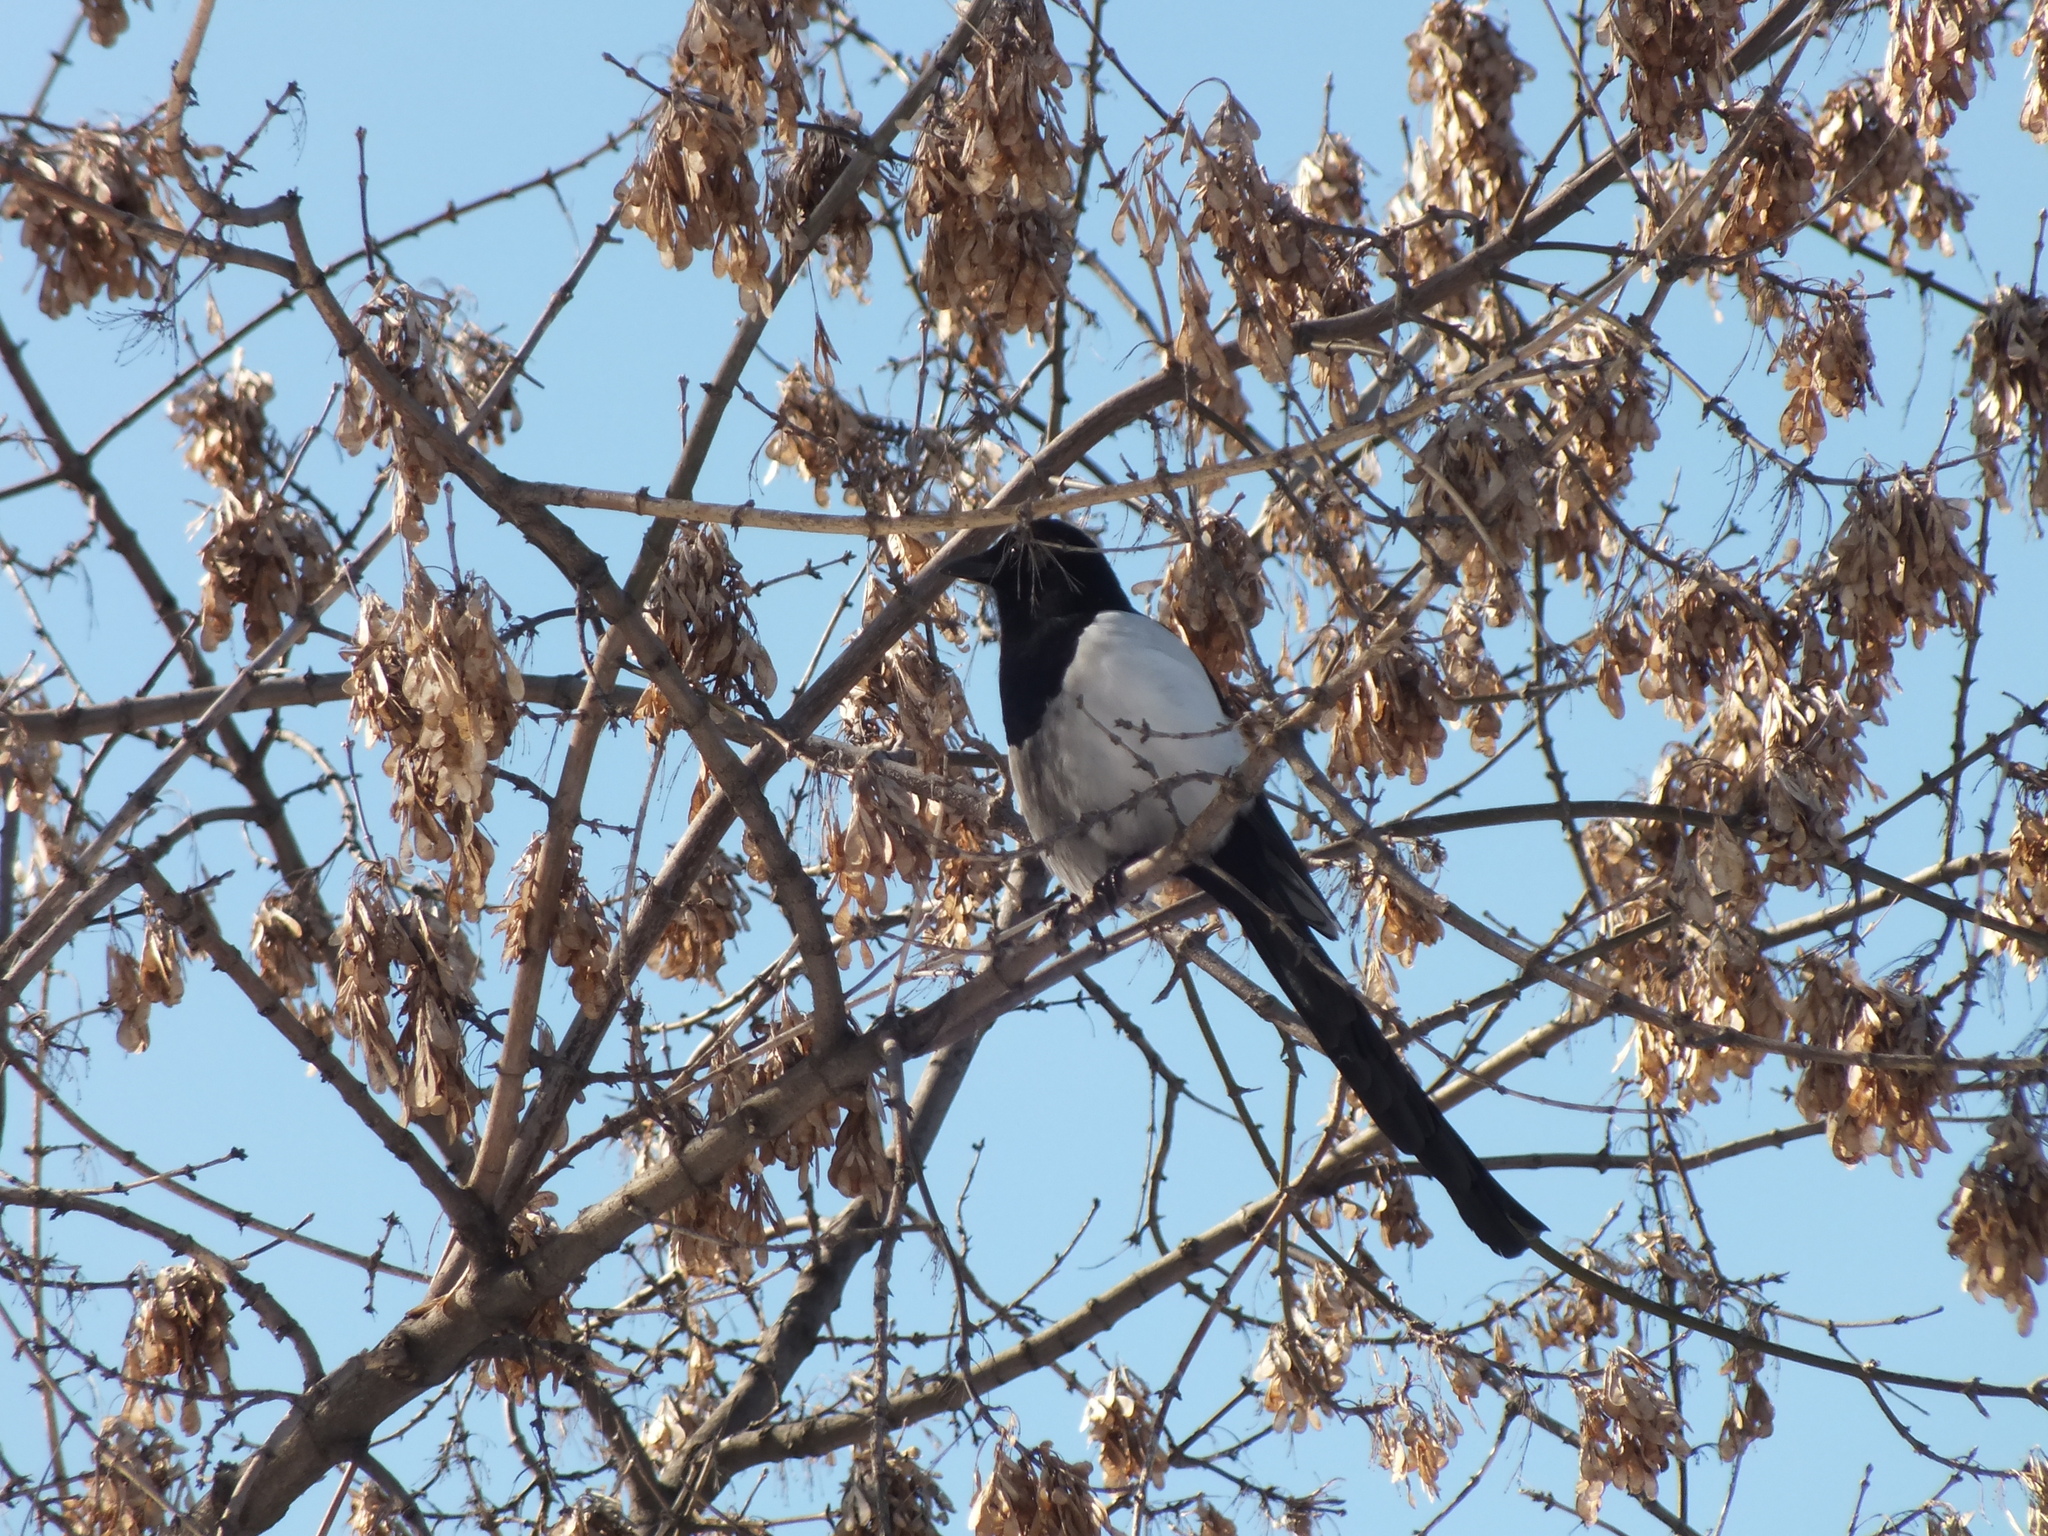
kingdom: Animalia
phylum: Chordata
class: Aves
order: Passeriformes
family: Corvidae
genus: Pica
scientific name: Pica pica
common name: Eurasian magpie
